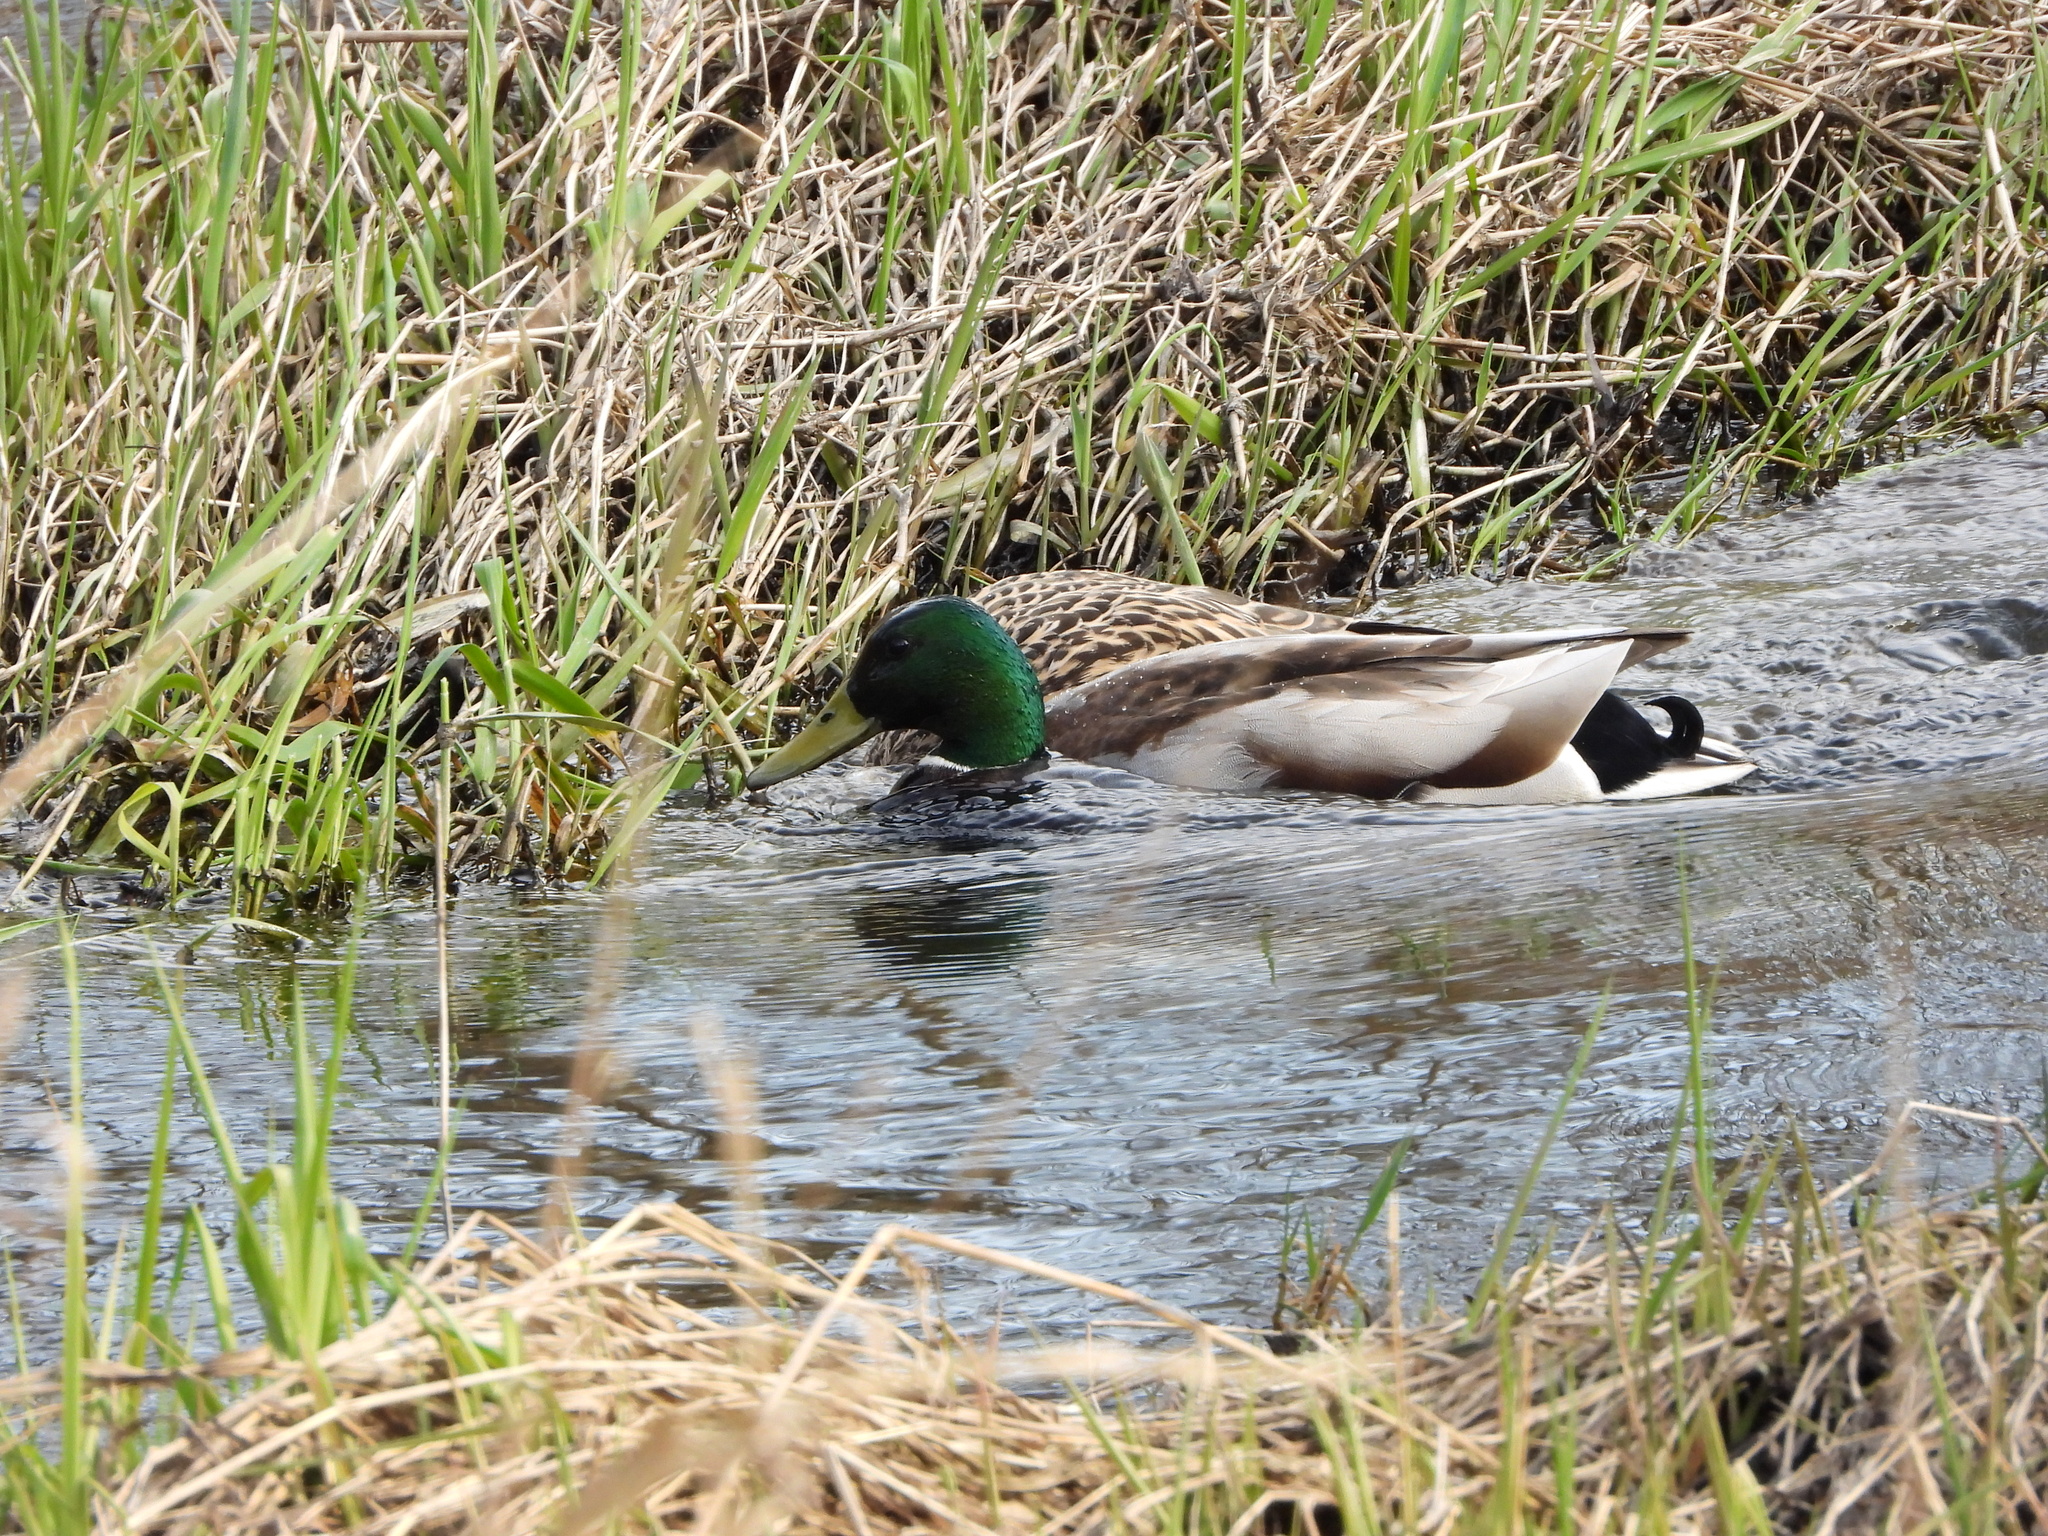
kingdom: Animalia
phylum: Chordata
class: Aves
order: Anseriformes
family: Anatidae
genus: Anas
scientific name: Anas platyrhynchos
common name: Mallard
